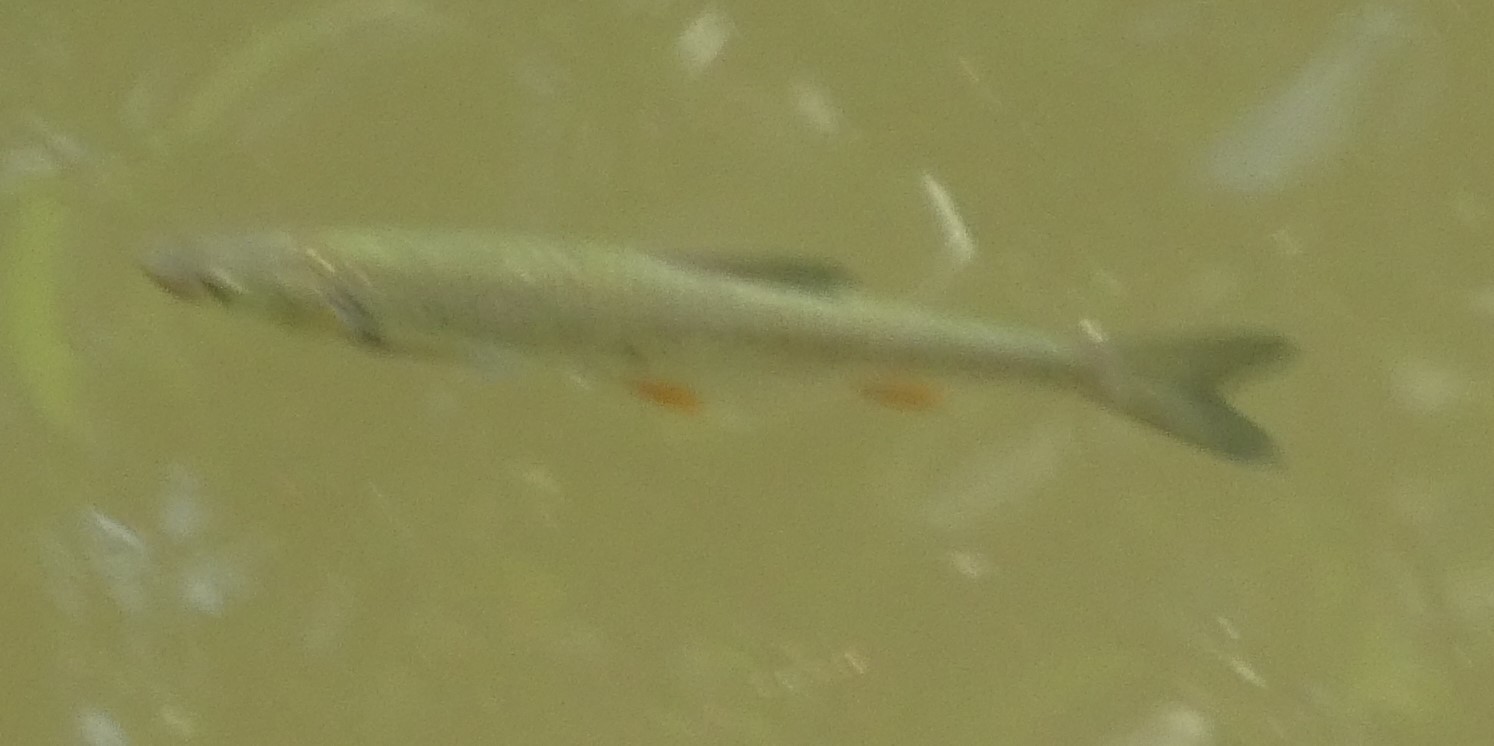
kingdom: Animalia
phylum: Chordata
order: Cypriniformes
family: Cyprinidae
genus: Squalius
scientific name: Squalius cephalus
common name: Chub
